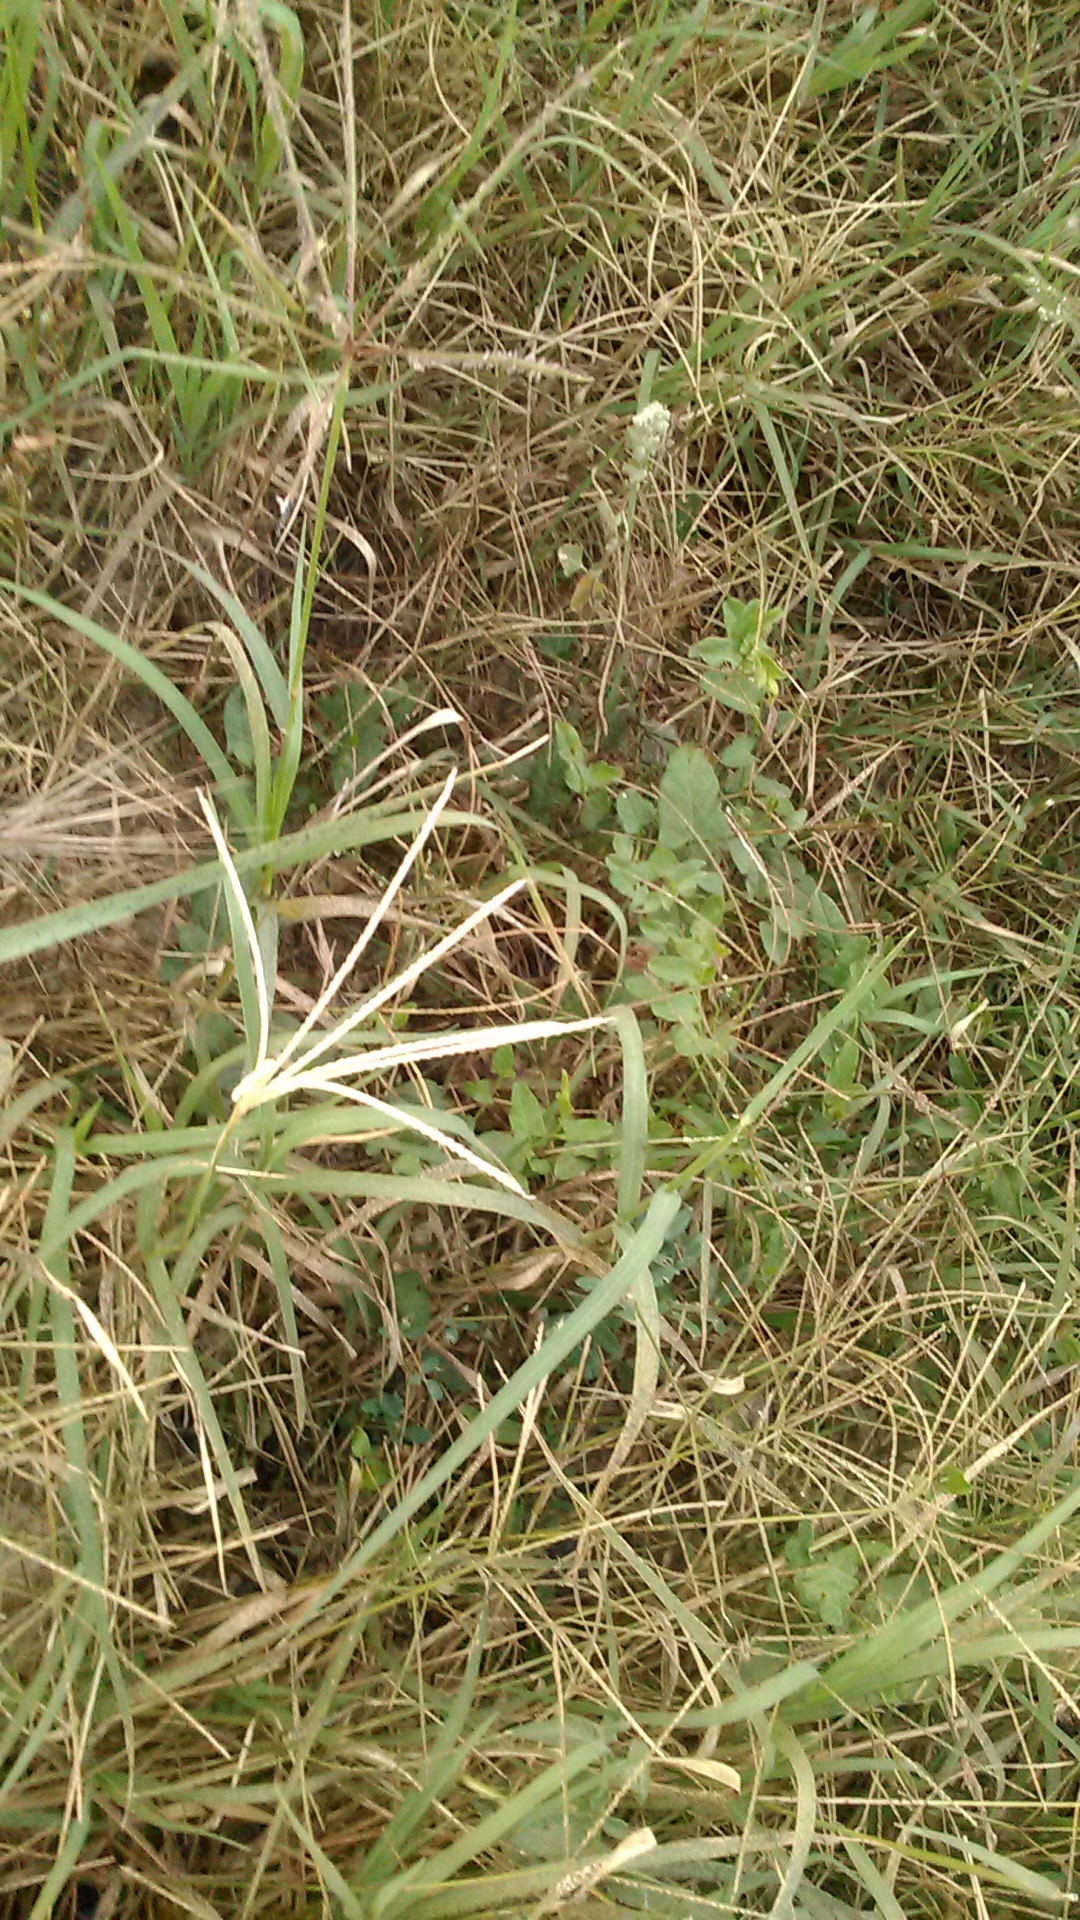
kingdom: Plantae
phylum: Tracheophyta
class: Liliopsida
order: Poales
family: Poaceae
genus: Cynodon
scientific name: Cynodon dactylon
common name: Bermuda grass
